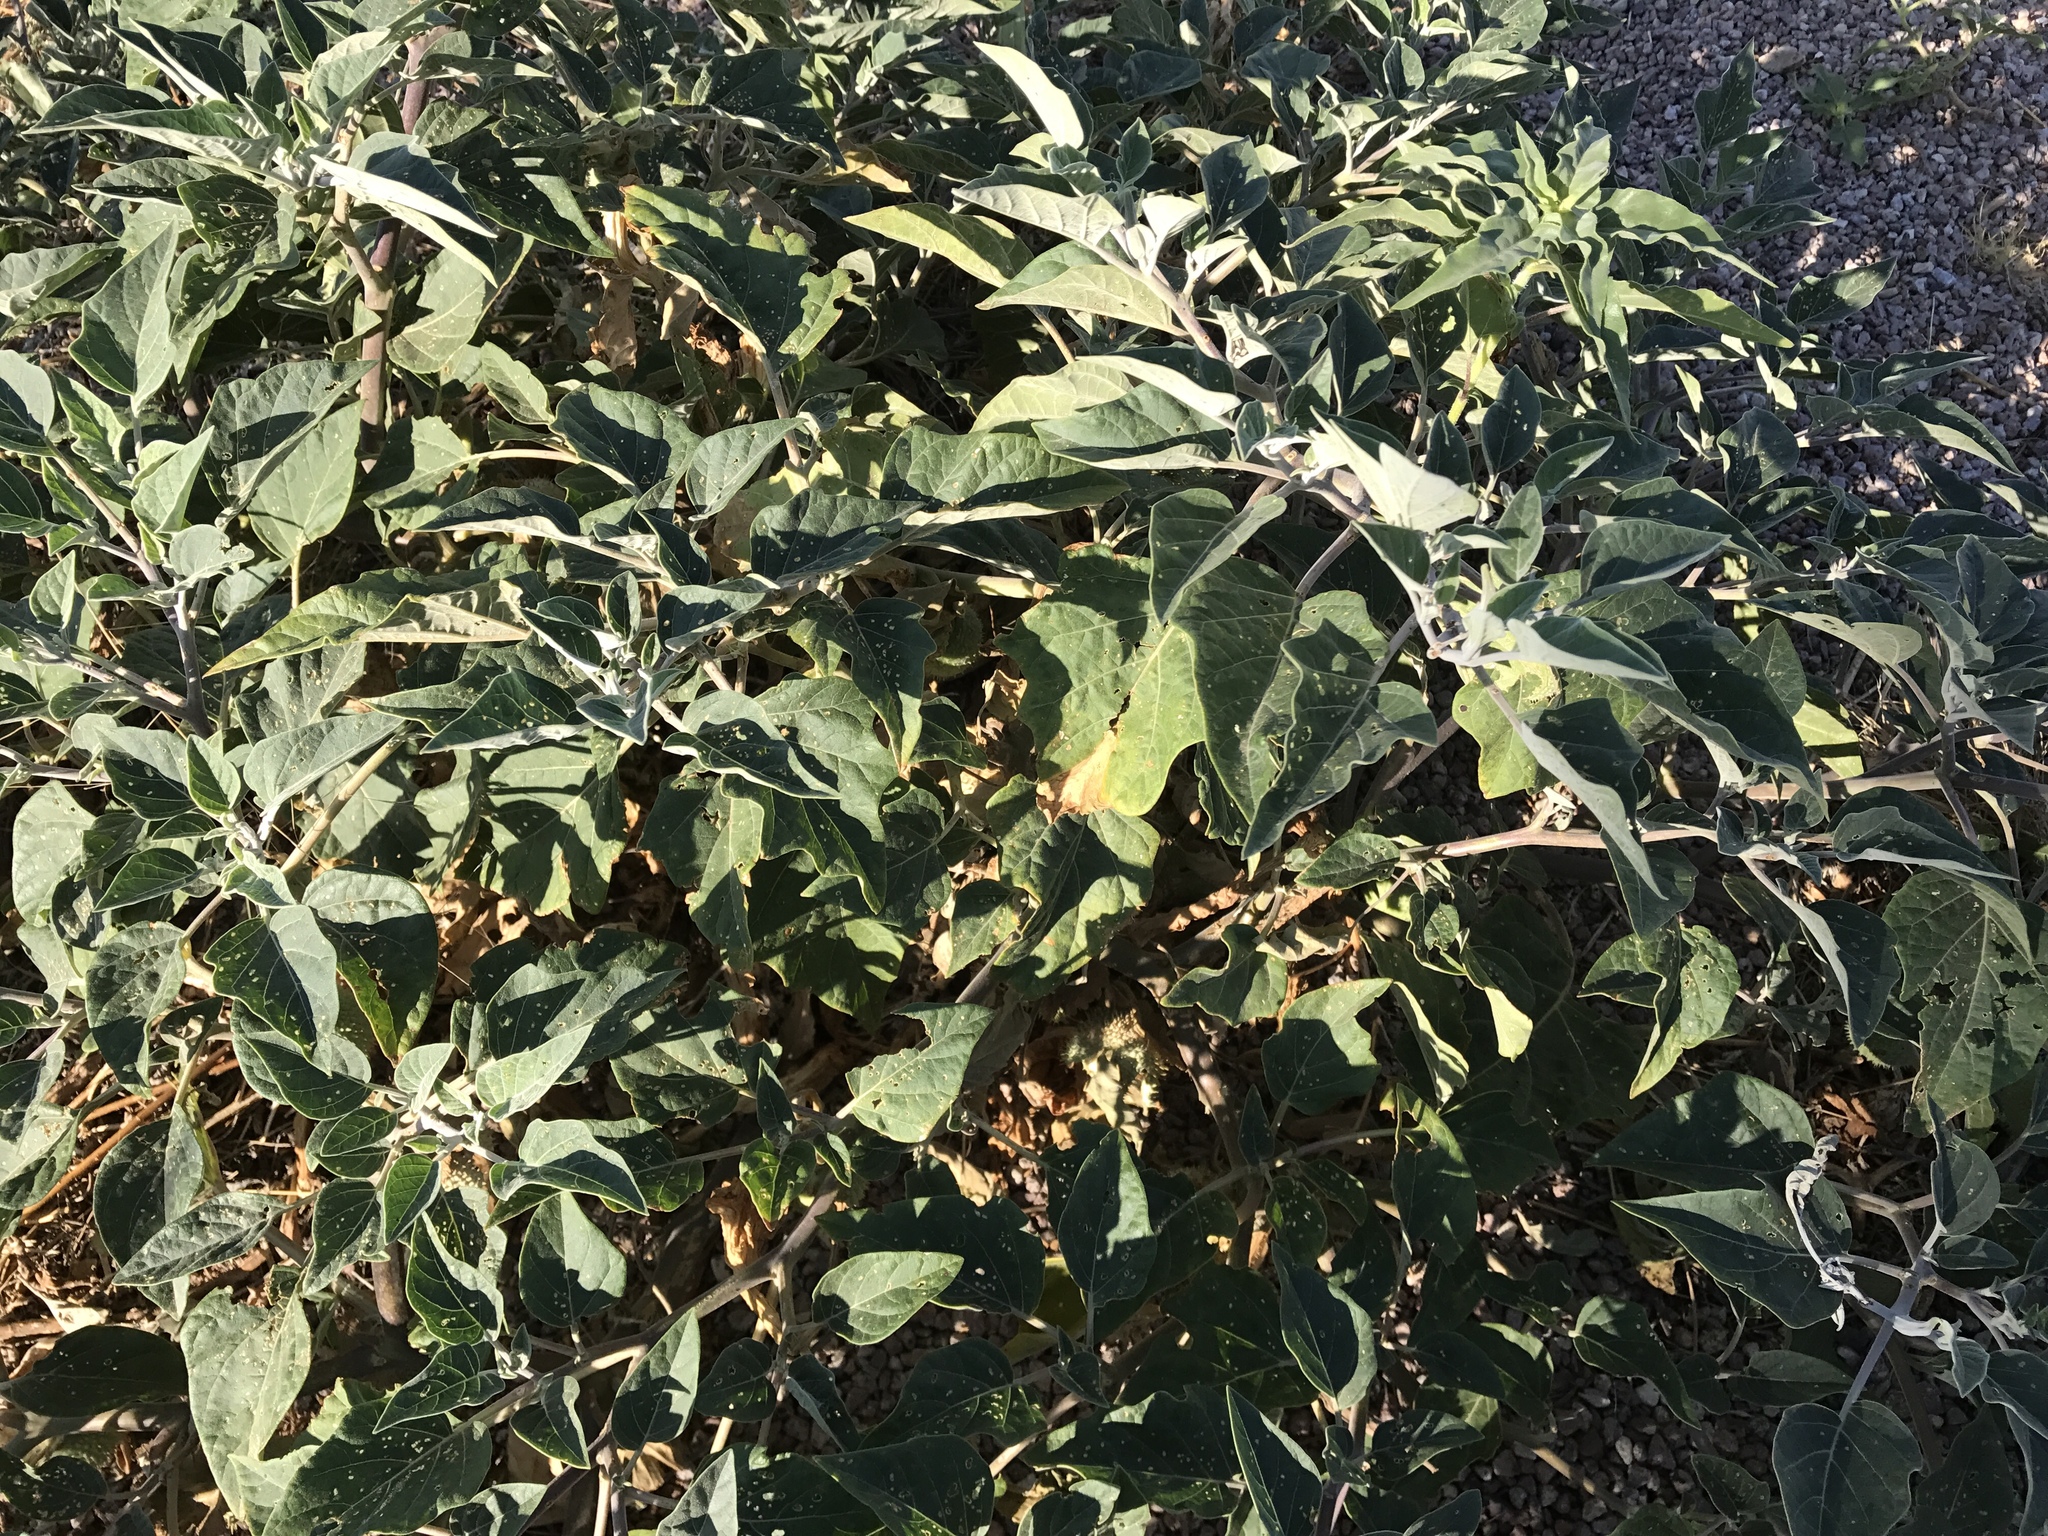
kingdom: Plantae
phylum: Tracheophyta
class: Magnoliopsida
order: Solanales
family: Solanaceae
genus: Datura
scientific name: Datura wrightii
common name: Sacred thorn-apple
